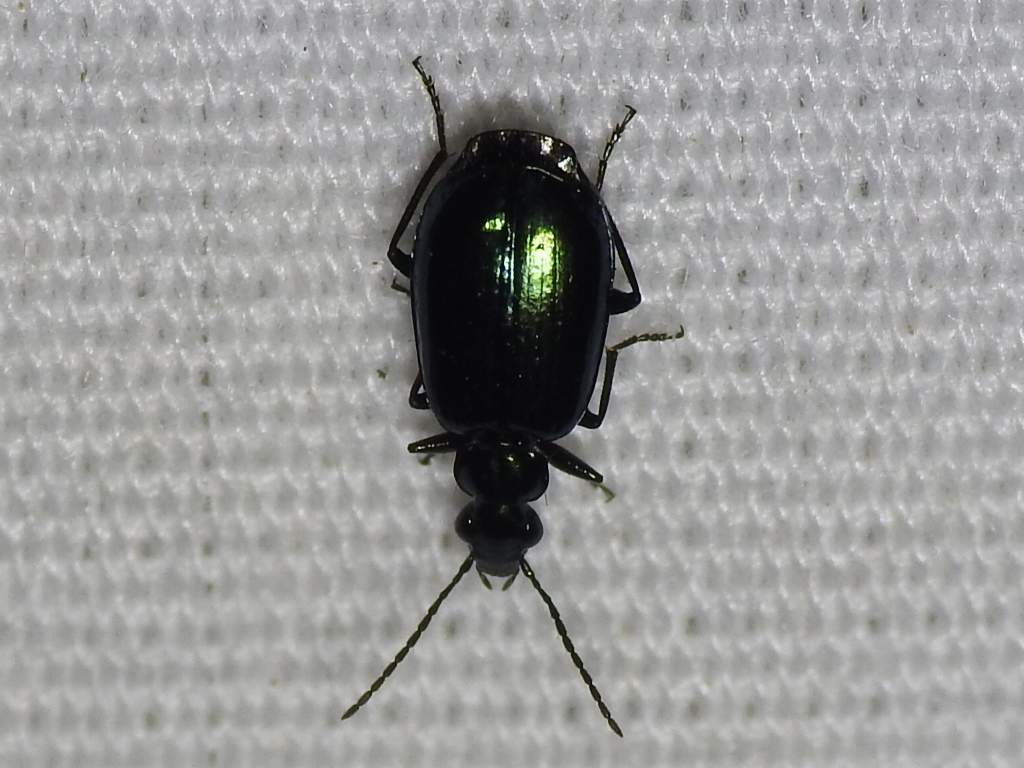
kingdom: Animalia
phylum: Arthropoda
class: Insecta
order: Coleoptera
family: Carabidae
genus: Lebia
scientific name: Lebia viridis
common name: Flower lebia beetle
